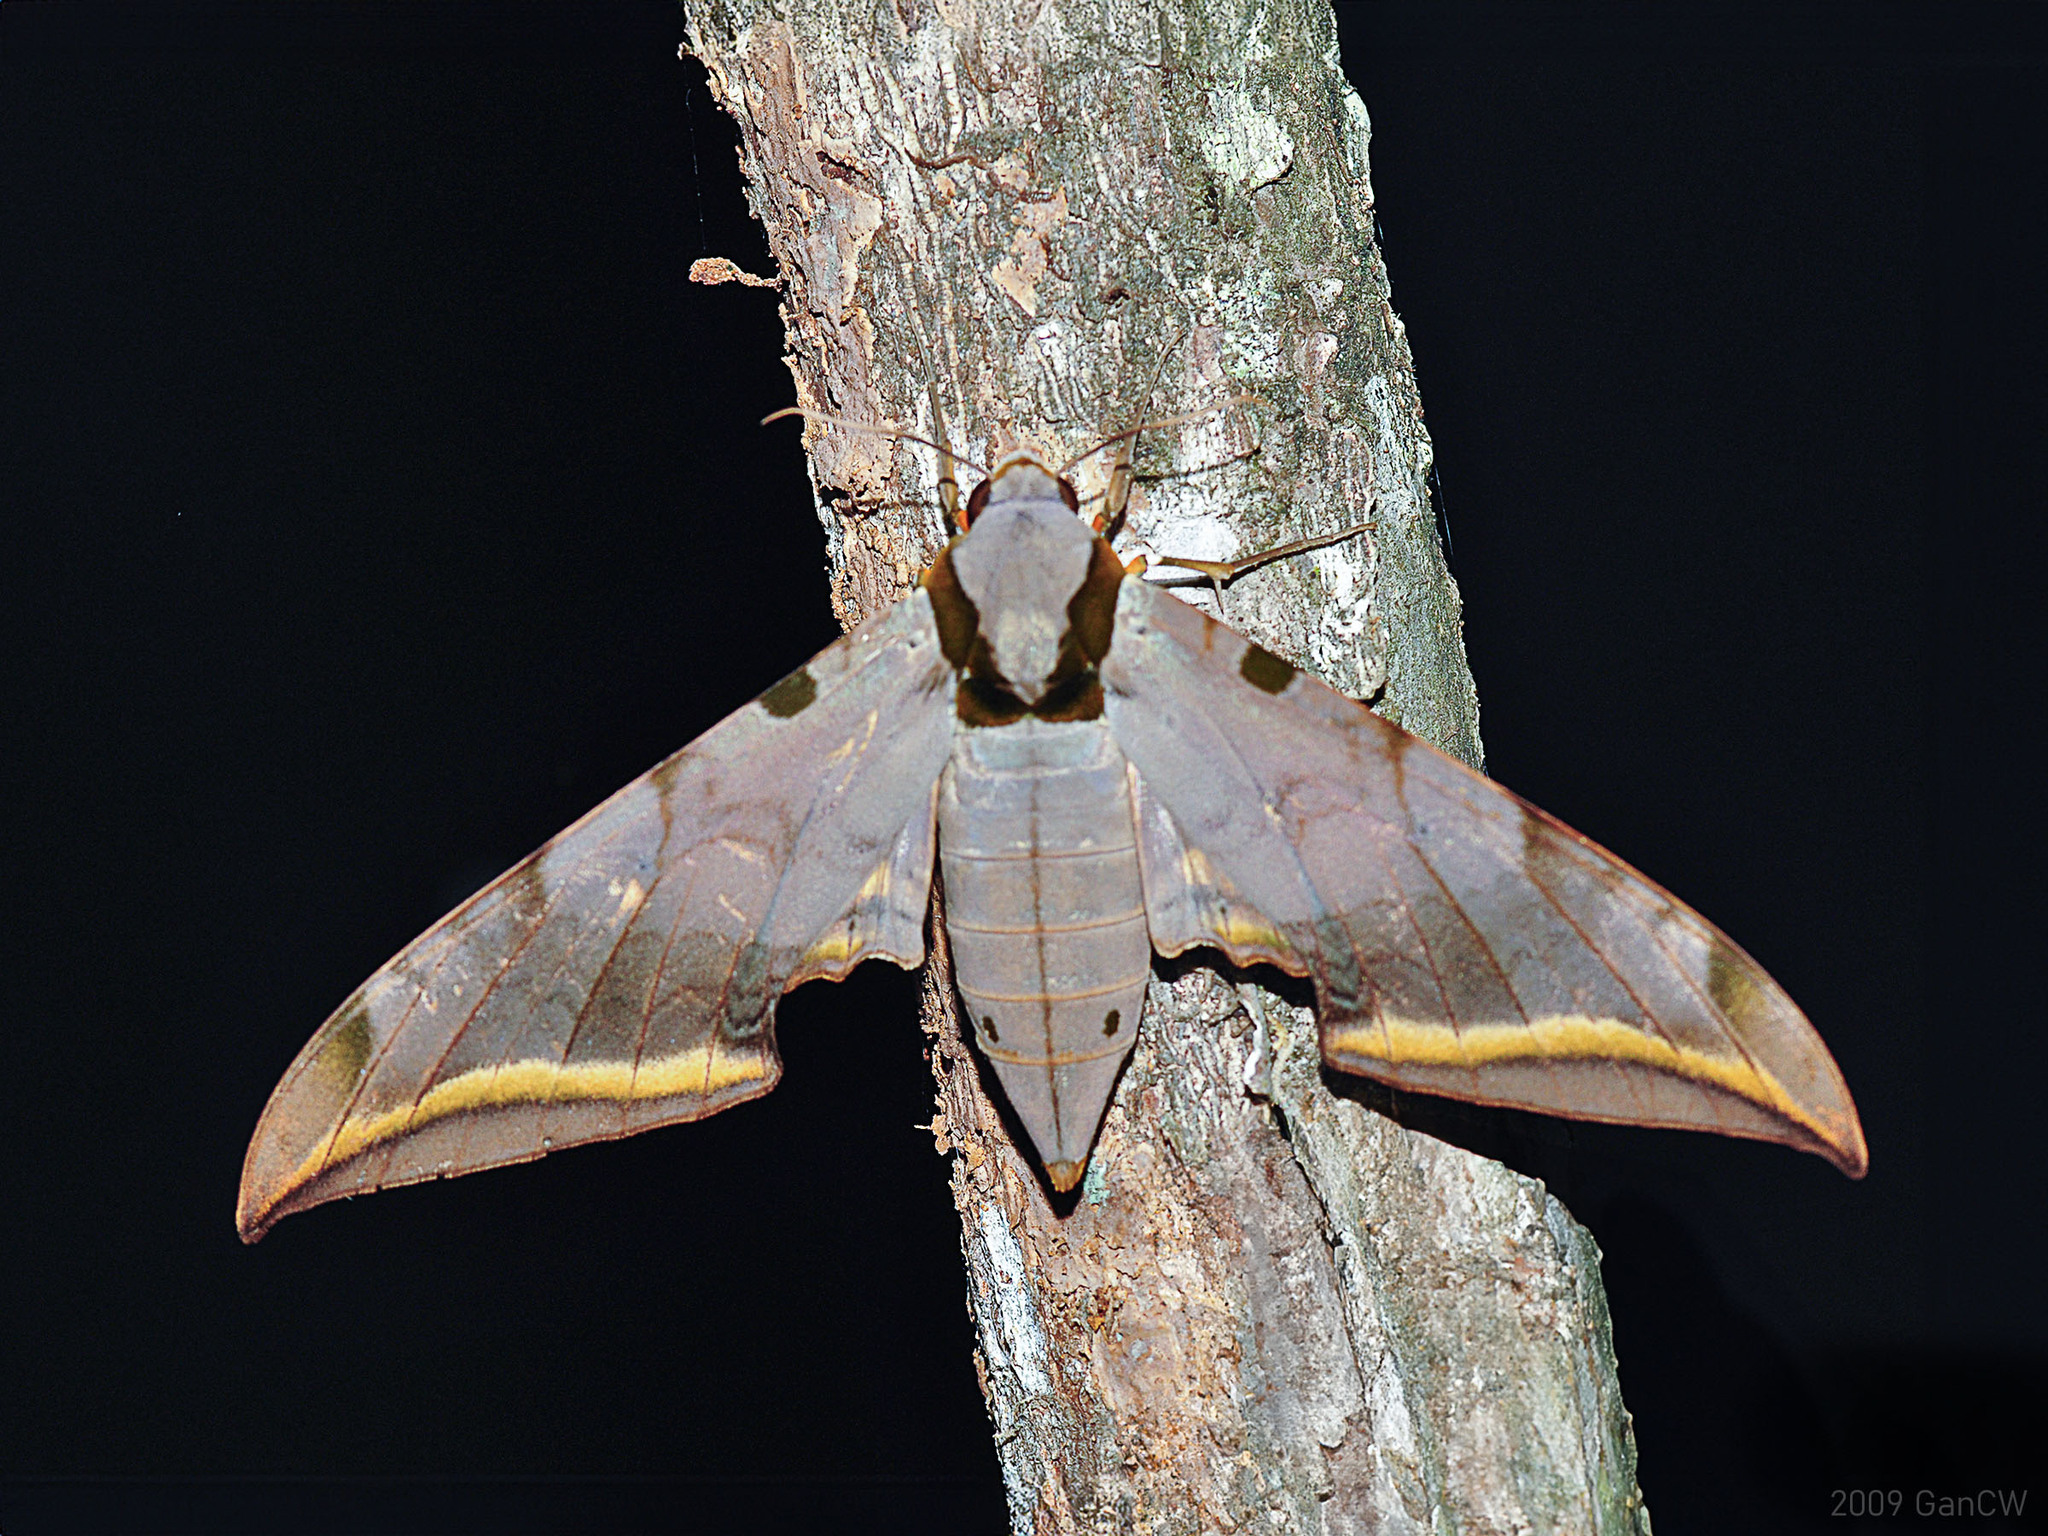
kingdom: Animalia
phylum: Arthropoda
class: Insecta
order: Lepidoptera
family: Sphingidae
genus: Ambulyx
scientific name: Ambulyx sericeipennis
